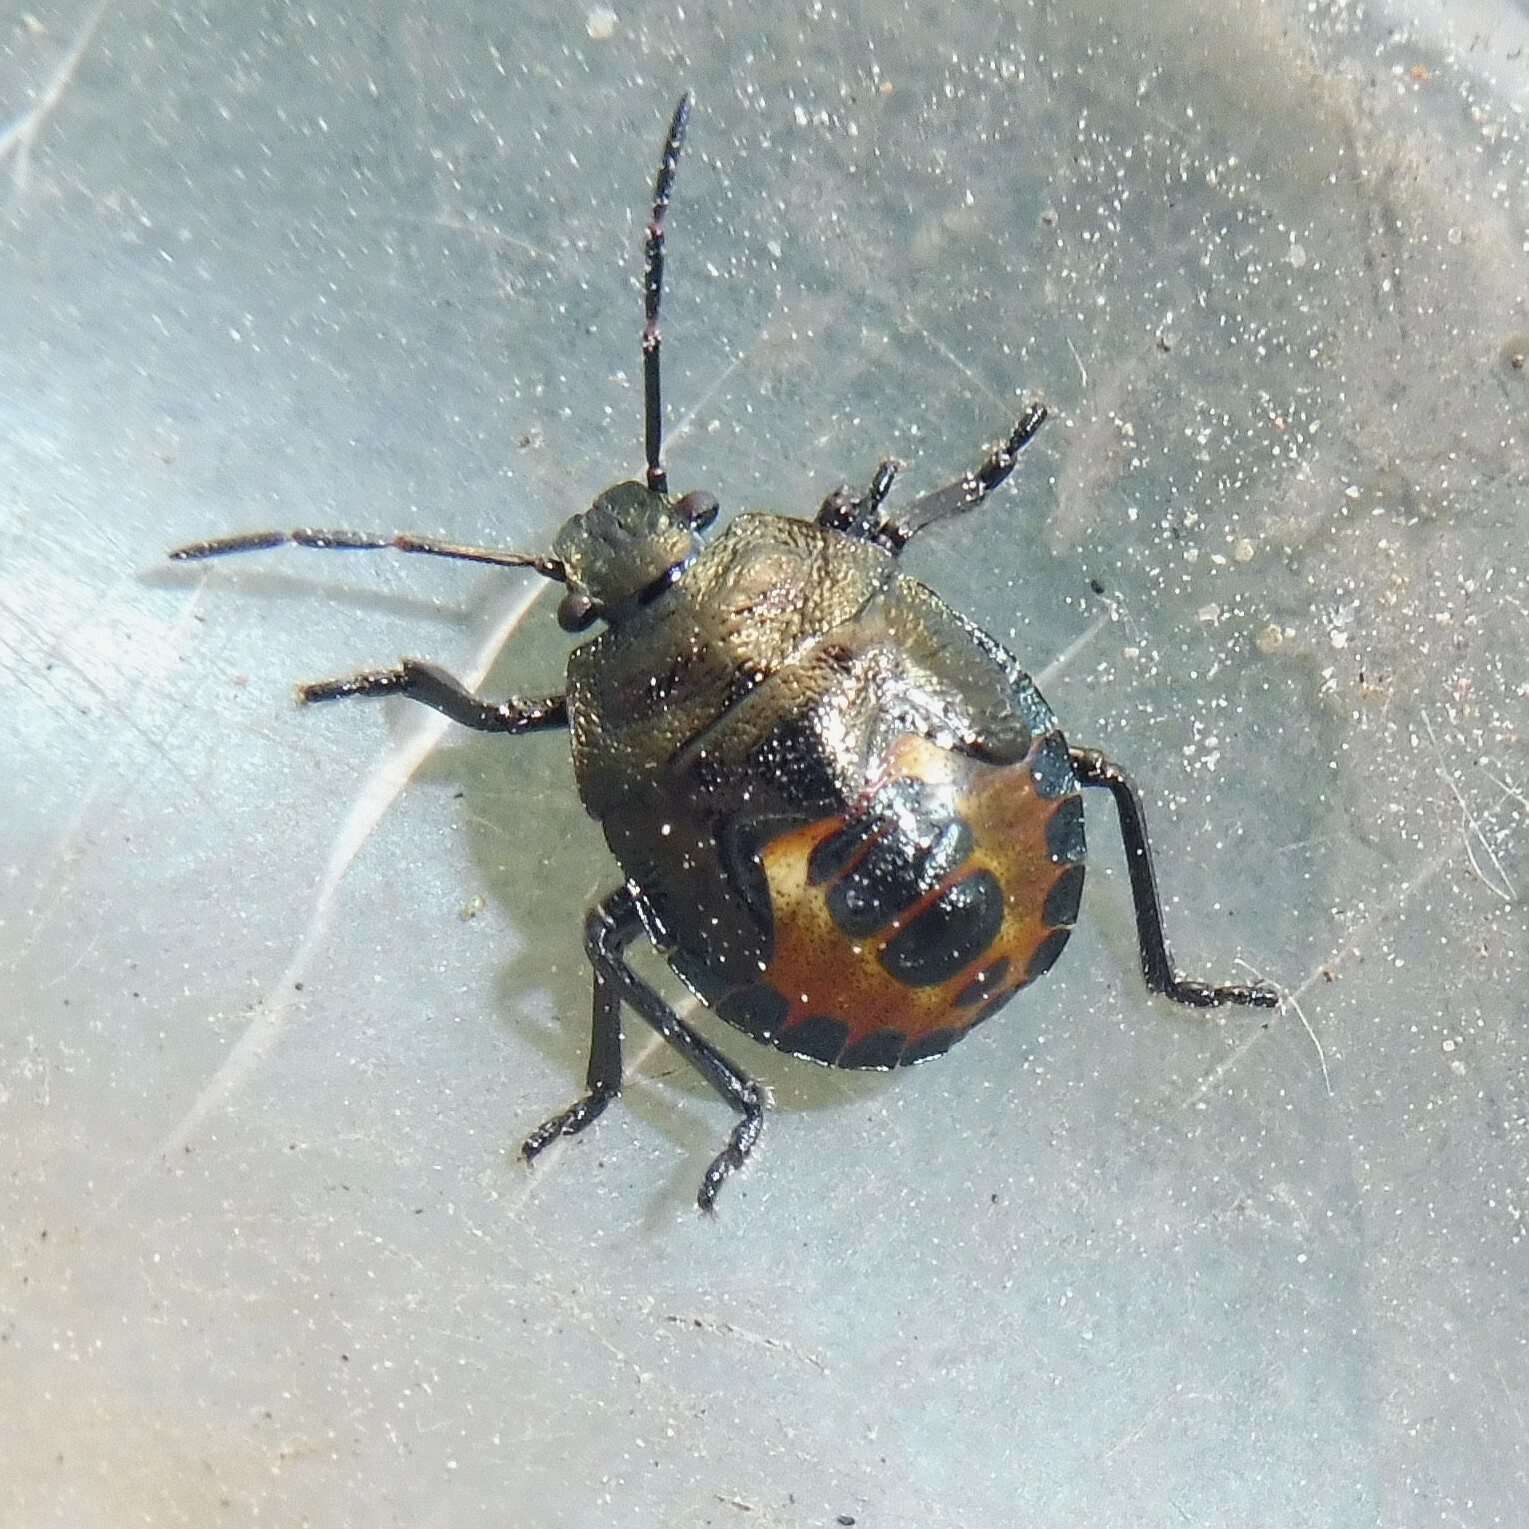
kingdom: Animalia
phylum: Arthropoda
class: Insecta
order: Hemiptera
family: Pentatomidae
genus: Rhacognathus
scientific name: Rhacognathus punctatus
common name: Heather bug
